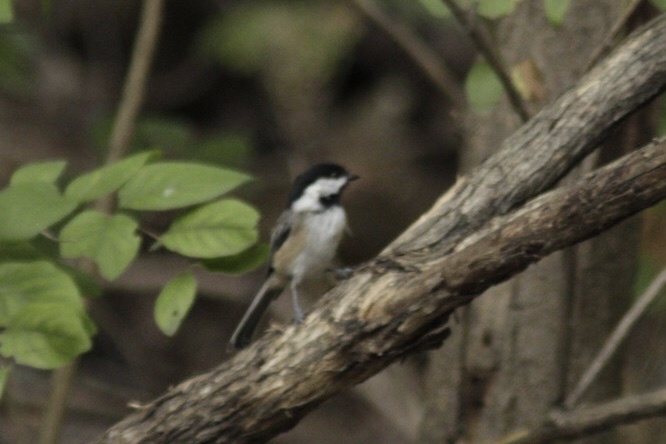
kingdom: Animalia
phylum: Chordata
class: Aves
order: Passeriformes
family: Paridae
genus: Poecile
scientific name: Poecile atricapillus
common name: Black-capped chickadee
